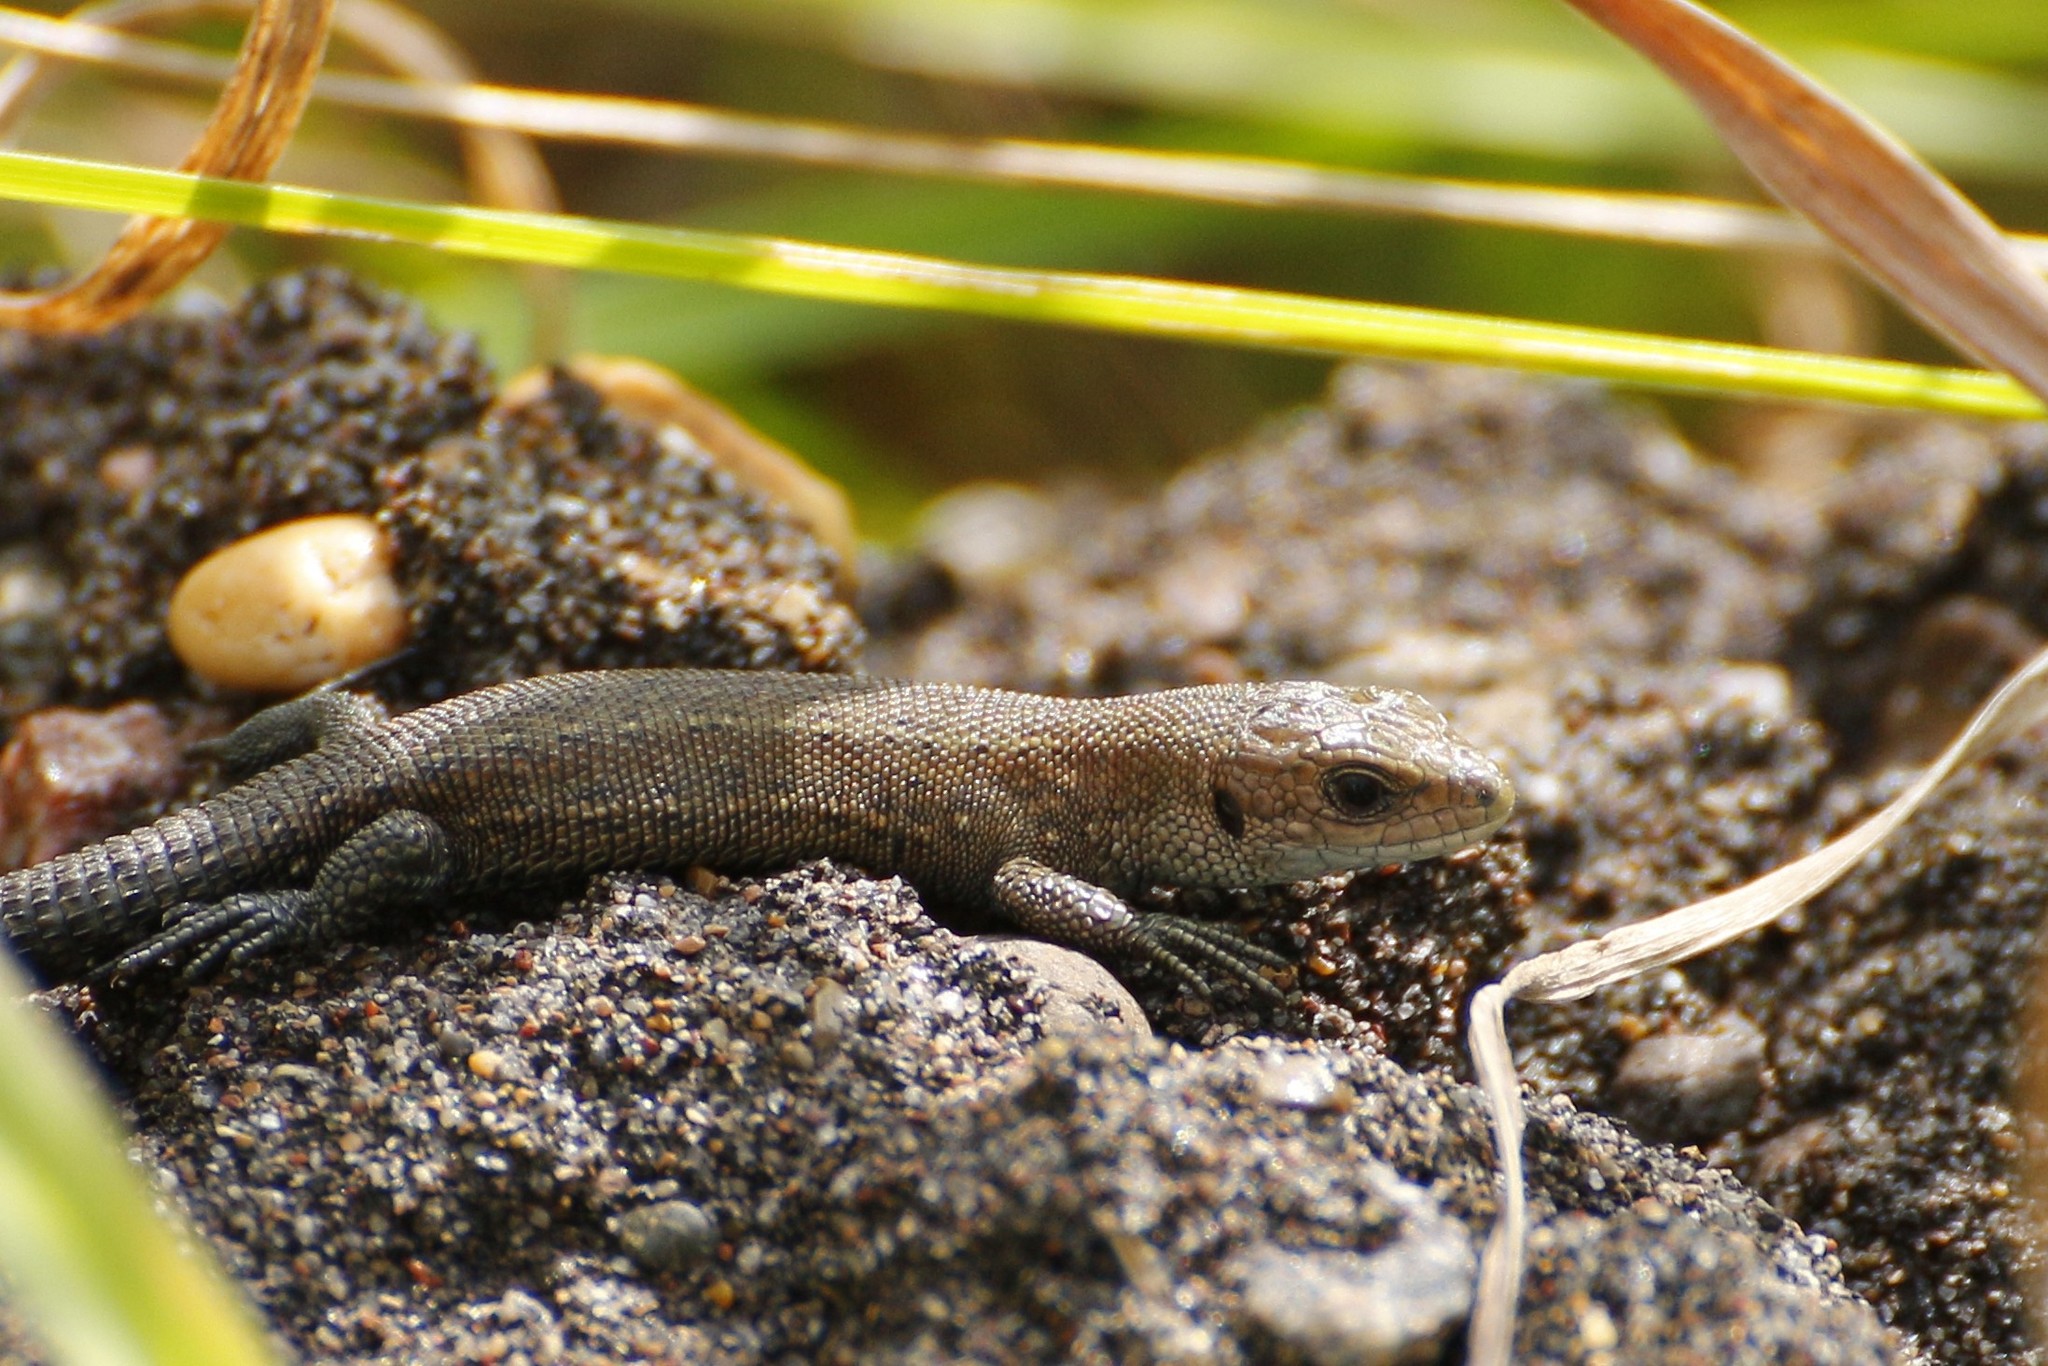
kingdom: Animalia
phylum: Chordata
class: Squamata
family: Lacertidae
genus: Zootoca
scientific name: Zootoca vivipara
